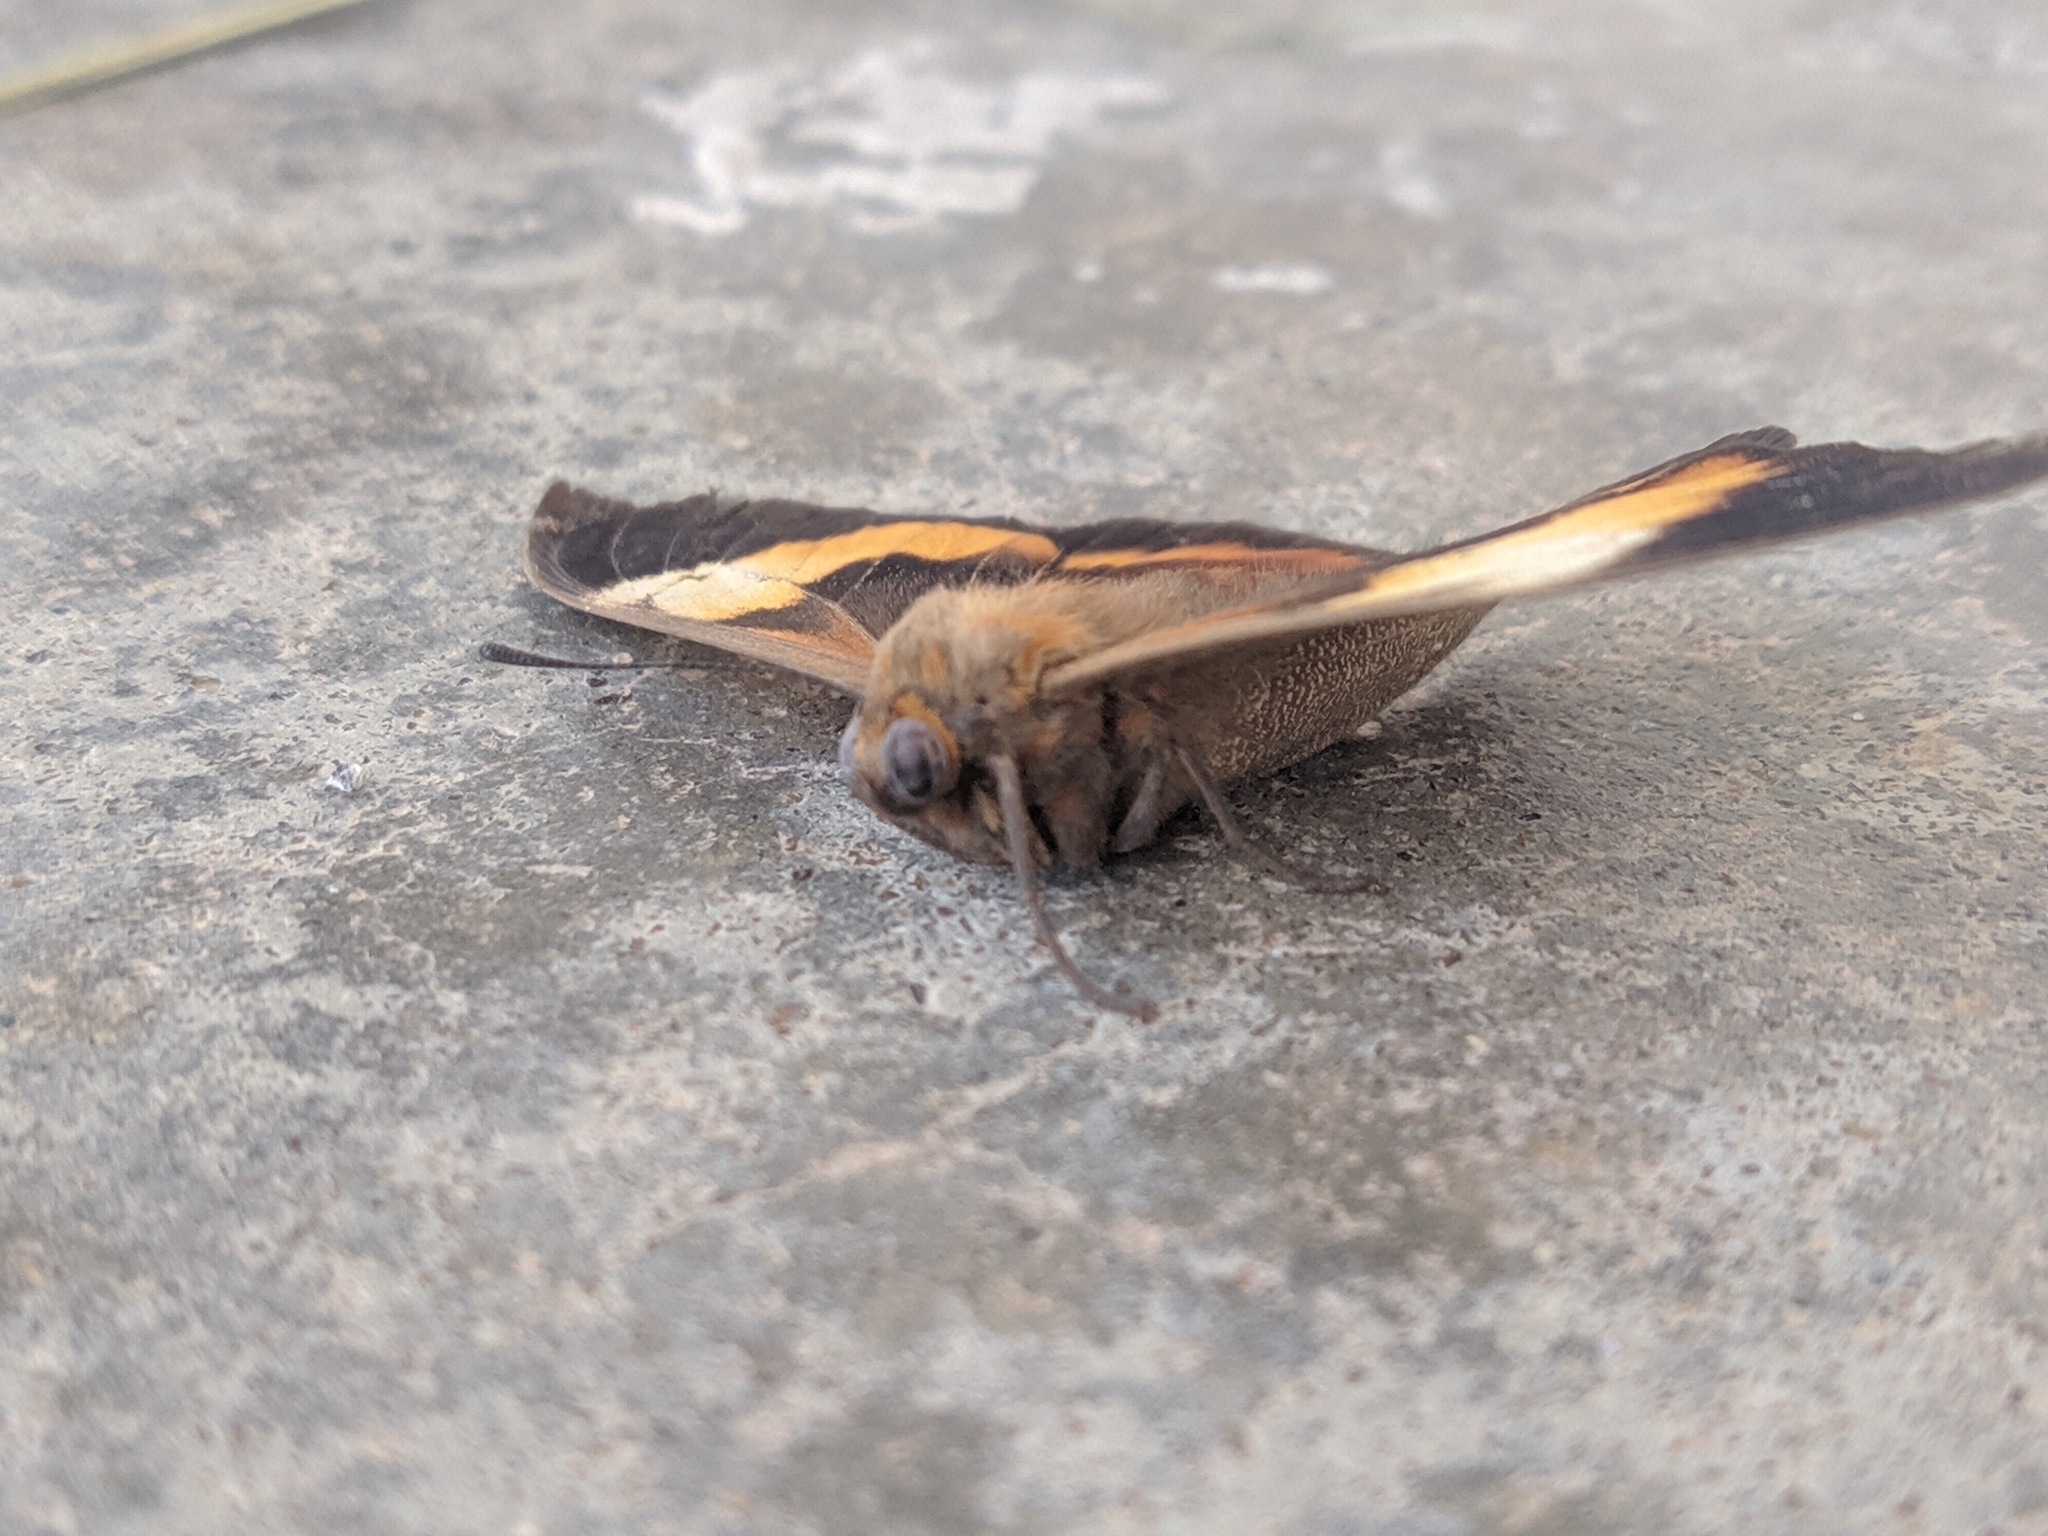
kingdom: Animalia
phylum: Arthropoda
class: Insecta
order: Lepidoptera
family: Nymphalidae
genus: Brassolis
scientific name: Brassolis sophorae
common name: Coconut caterpillar
